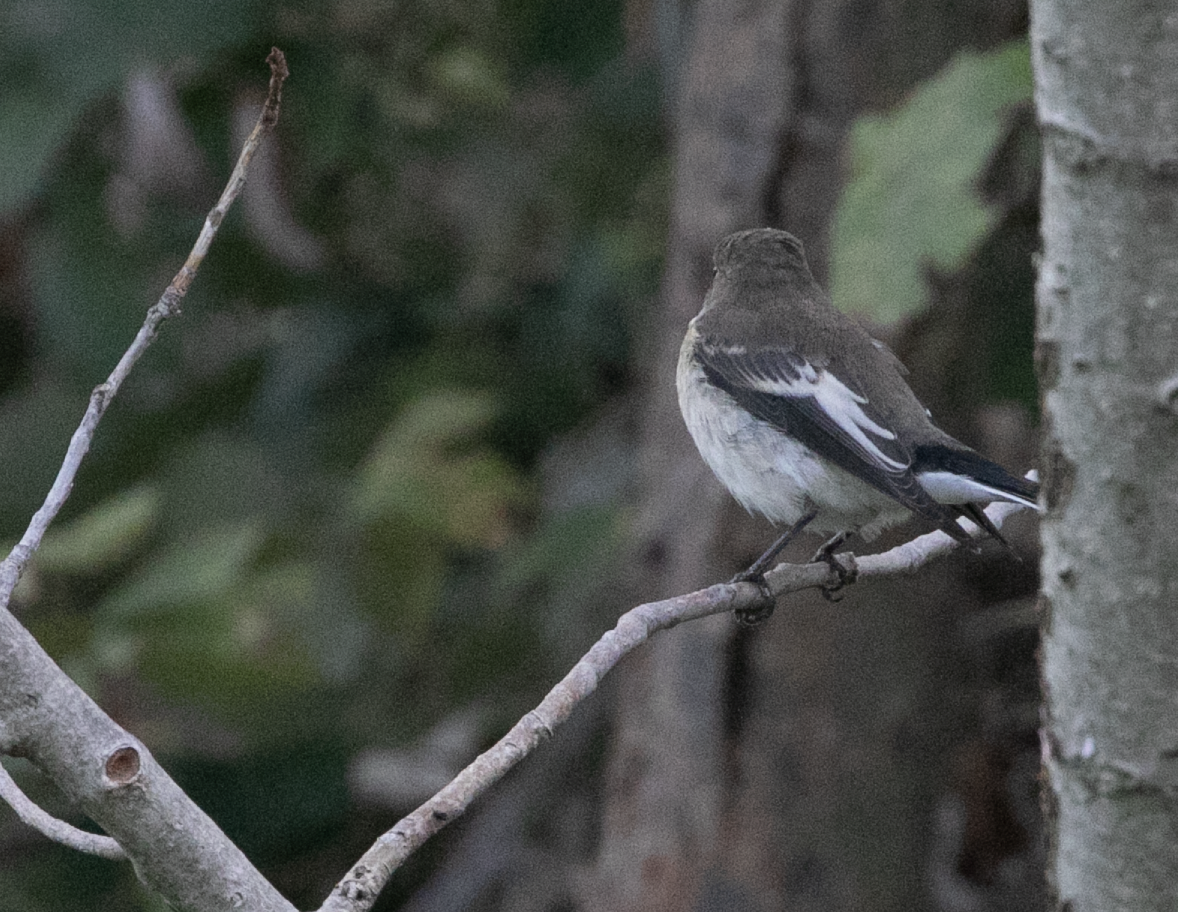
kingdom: Animalia
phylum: Chordata
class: Aves
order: Passeriformes
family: Muscicapidae
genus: Ficedula
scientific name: Ficedula hypoleuca
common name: European pied flycatcher
